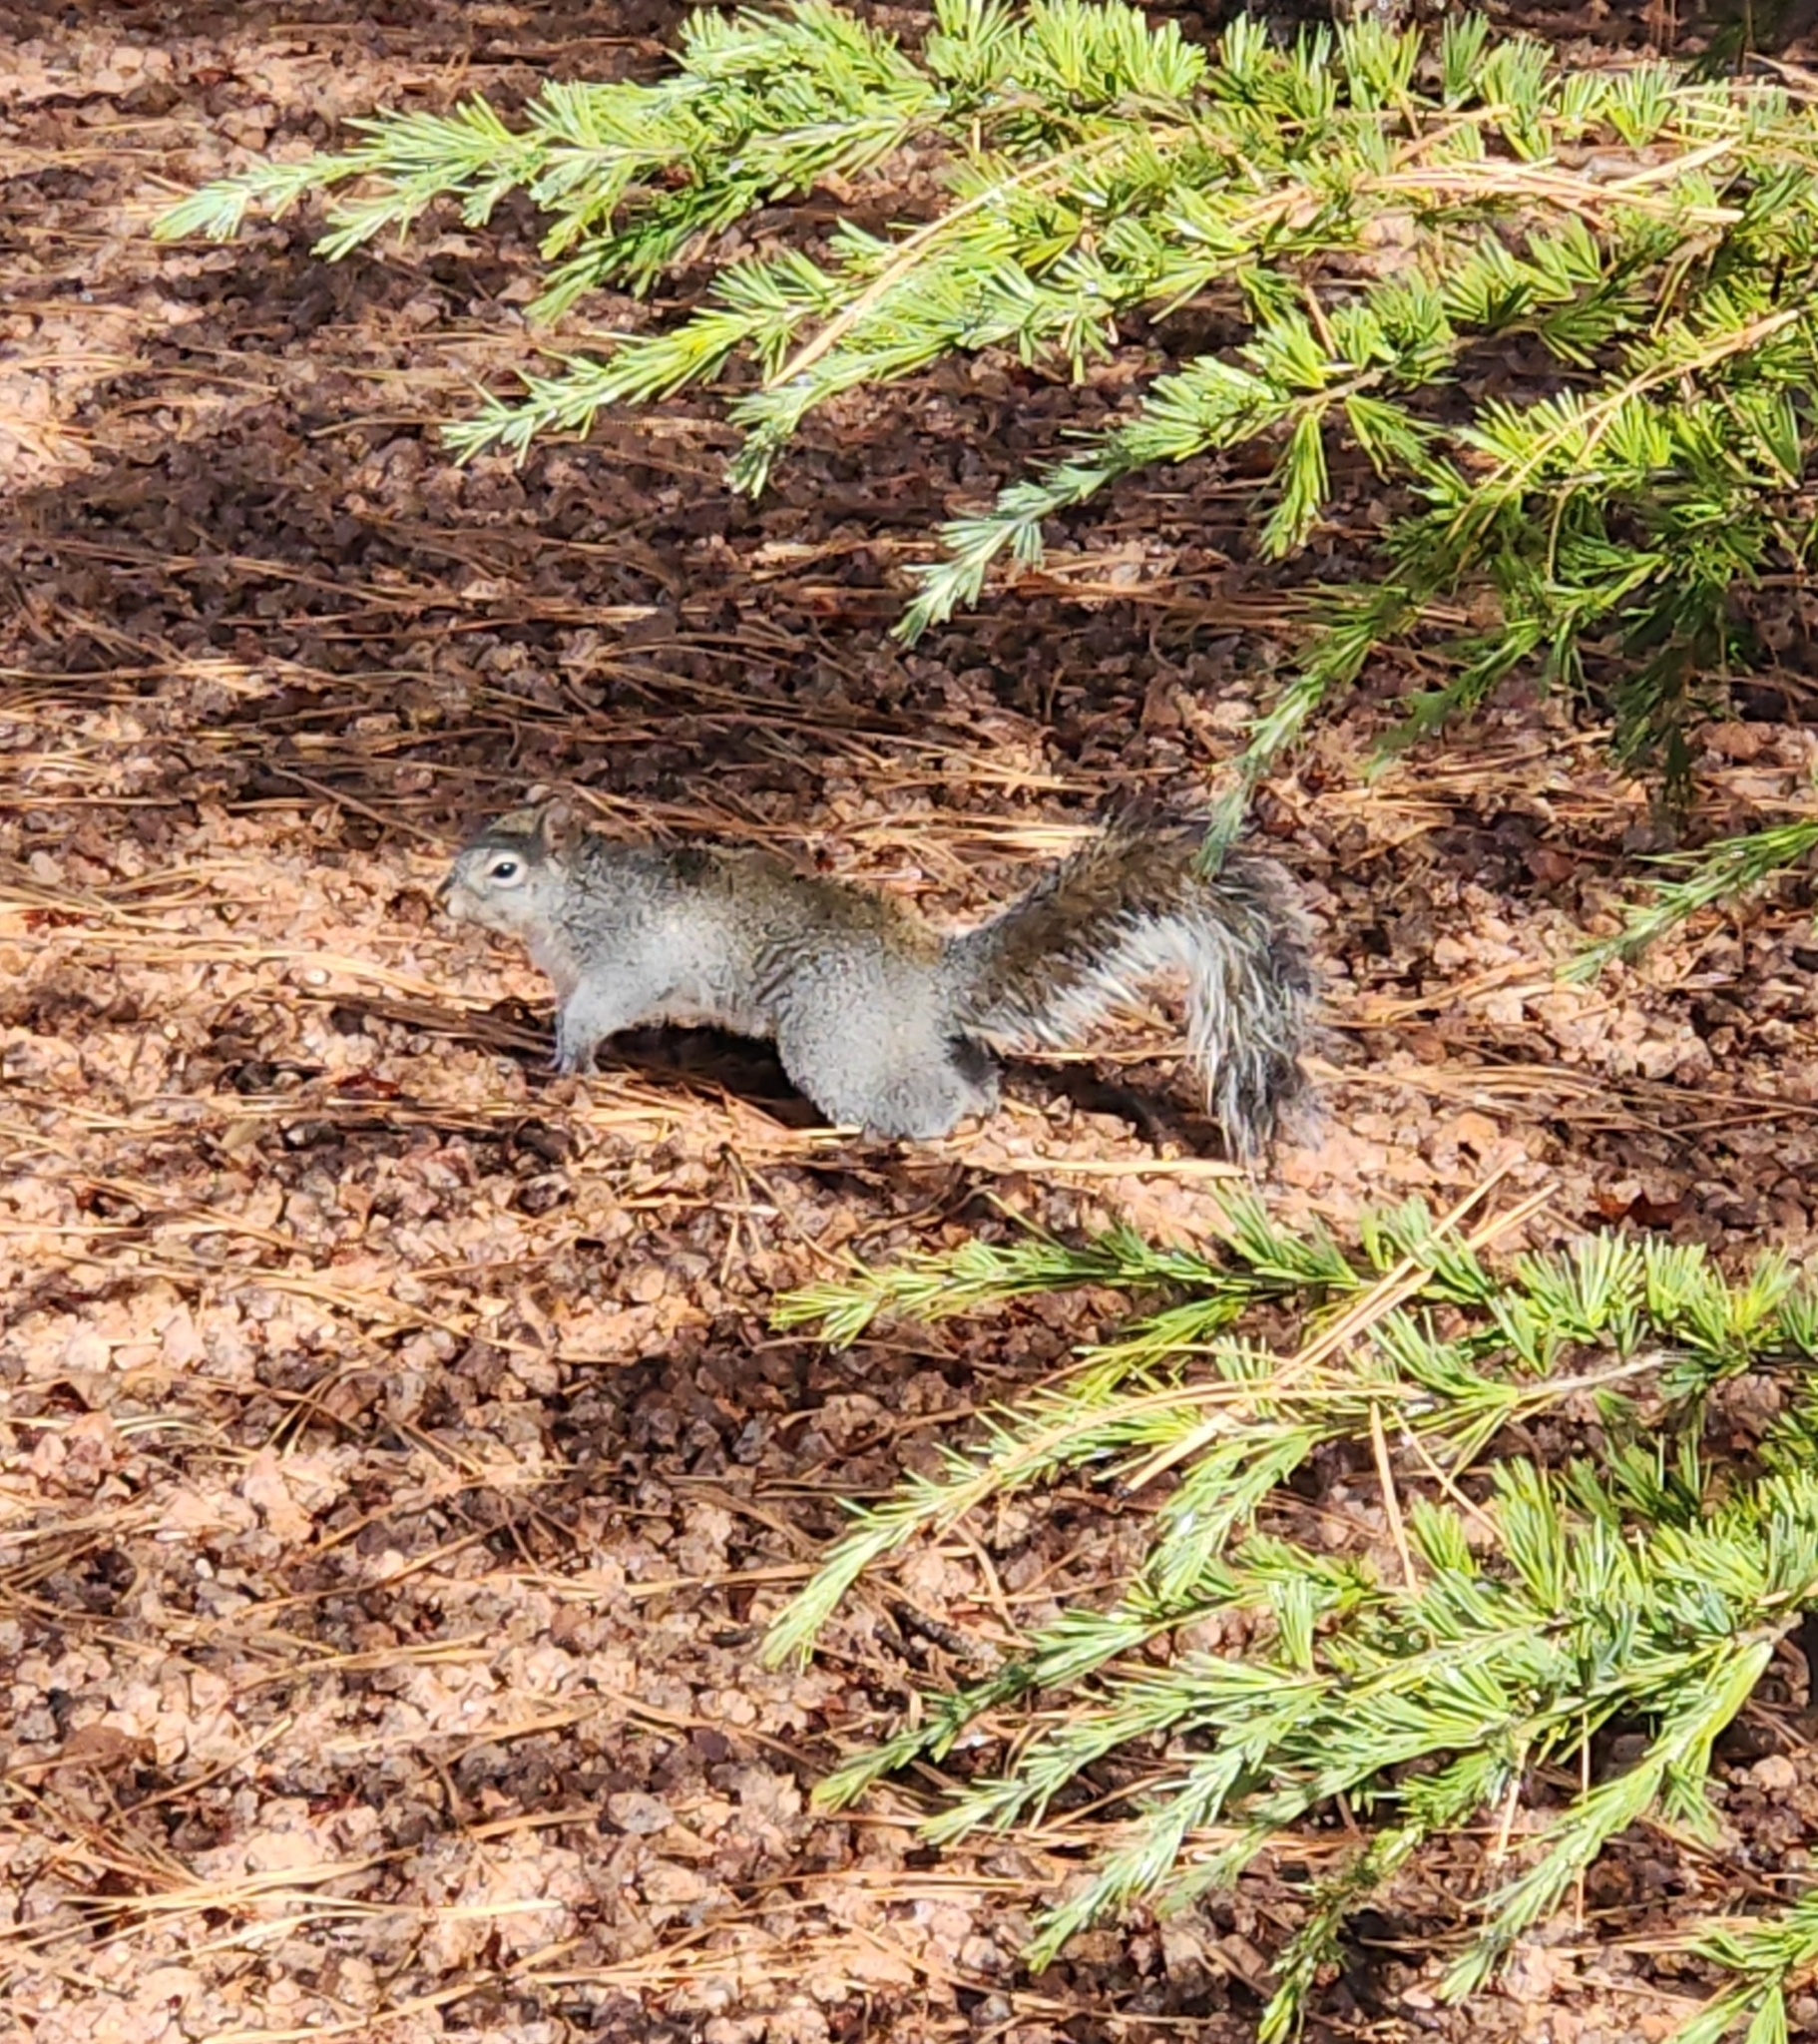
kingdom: Animalia
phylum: Chordata
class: Mammalia
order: Rodentia
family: Sciuridae
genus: Sciurus
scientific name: Sciurus arizonensis
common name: Arizona gray squirrel
